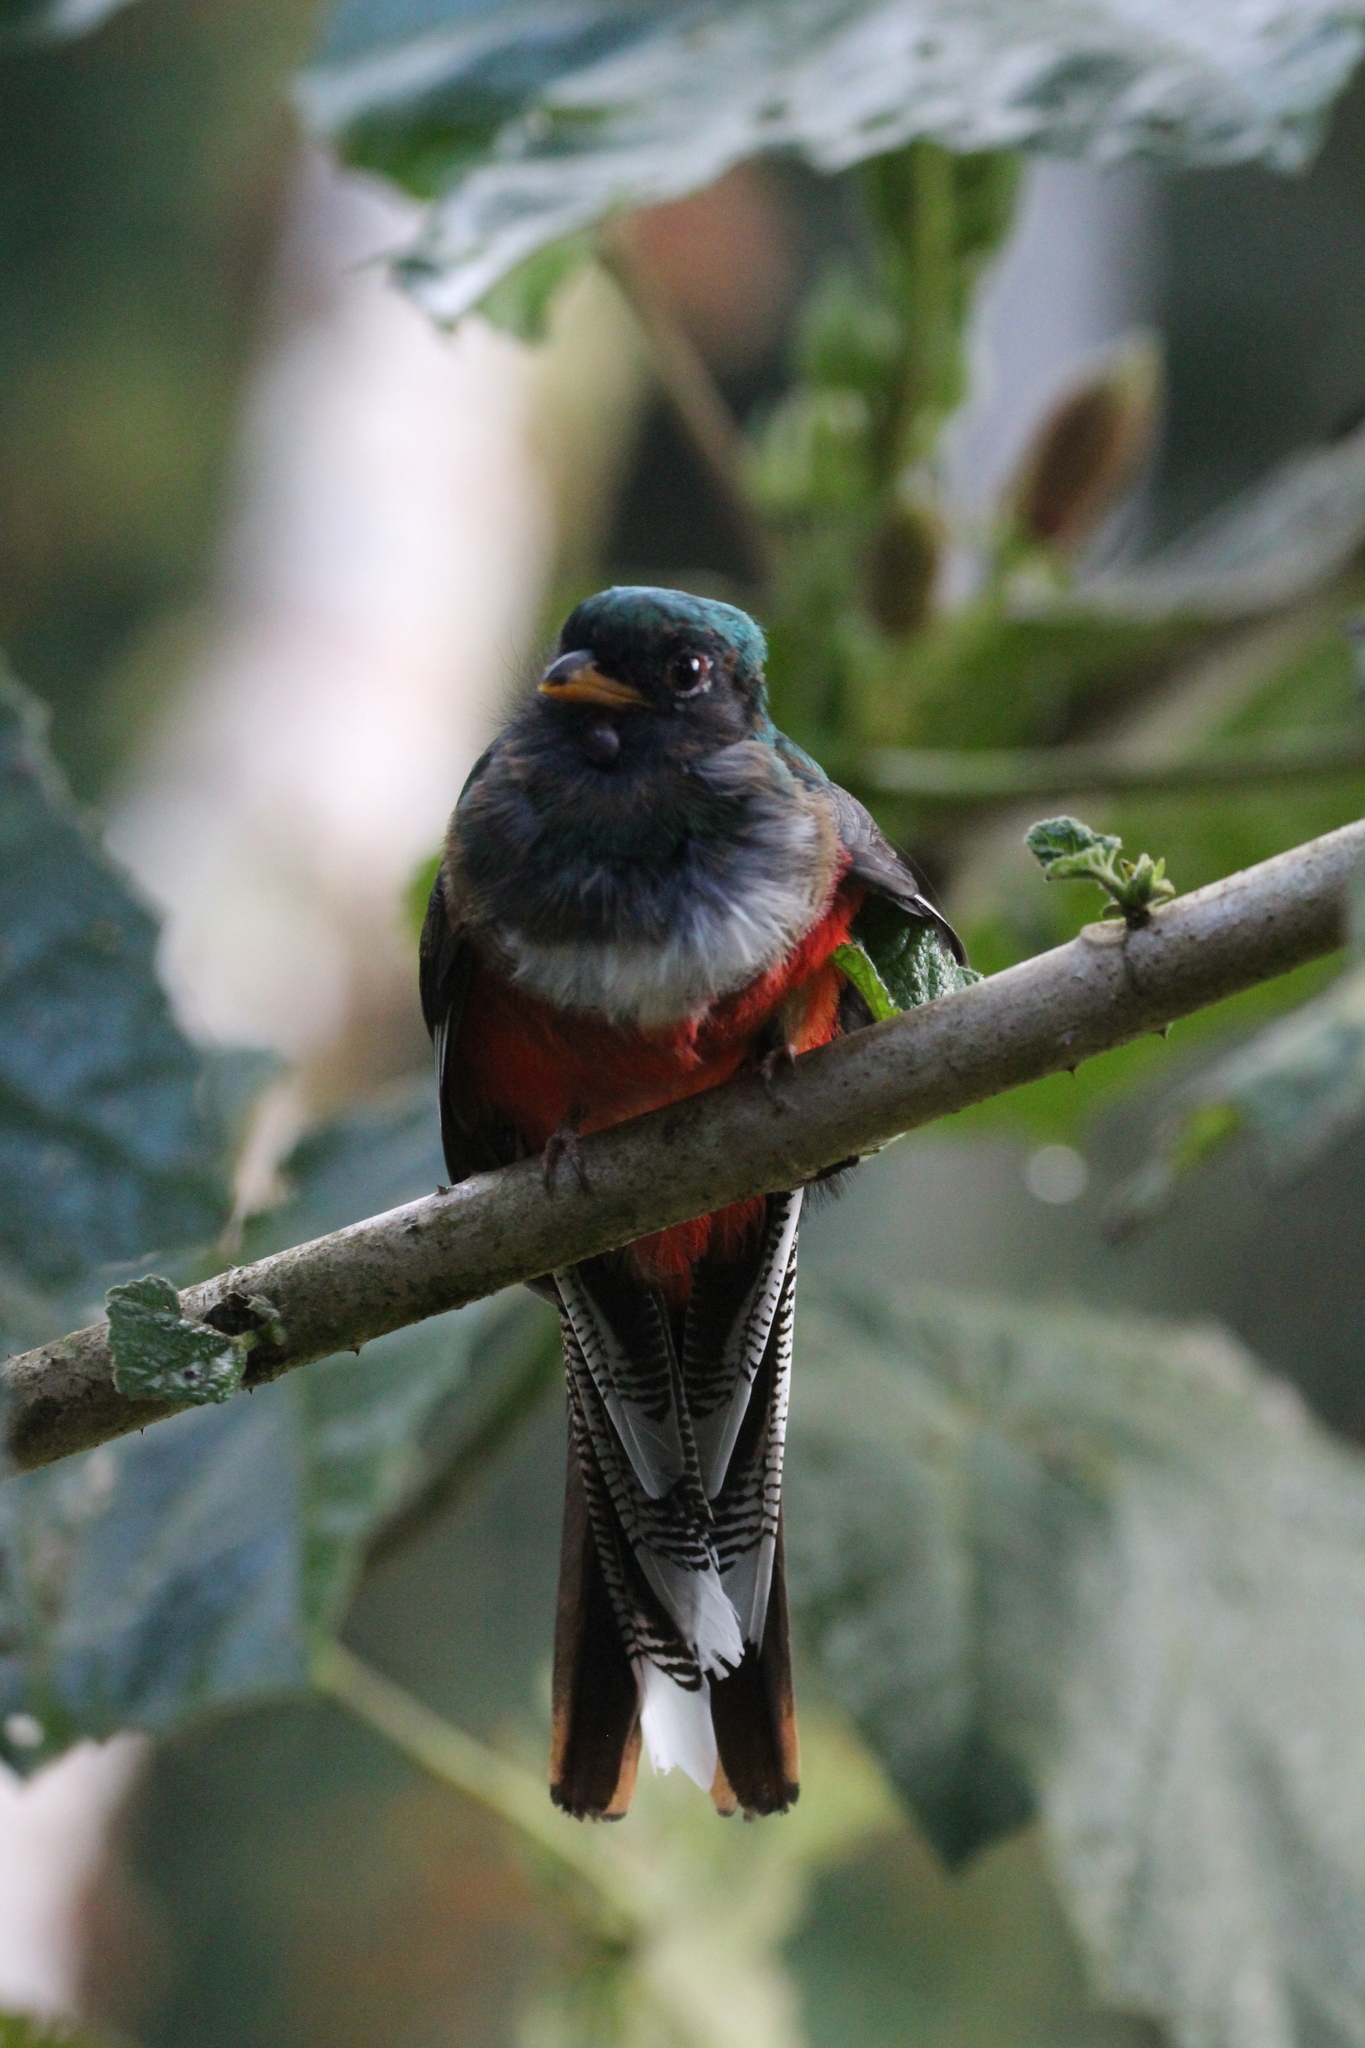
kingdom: Animalia
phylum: Chordata
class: Aves
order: Trogoniformes
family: Trogonidae
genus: Trogon
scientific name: Trogon collaris
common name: Collared trogon
